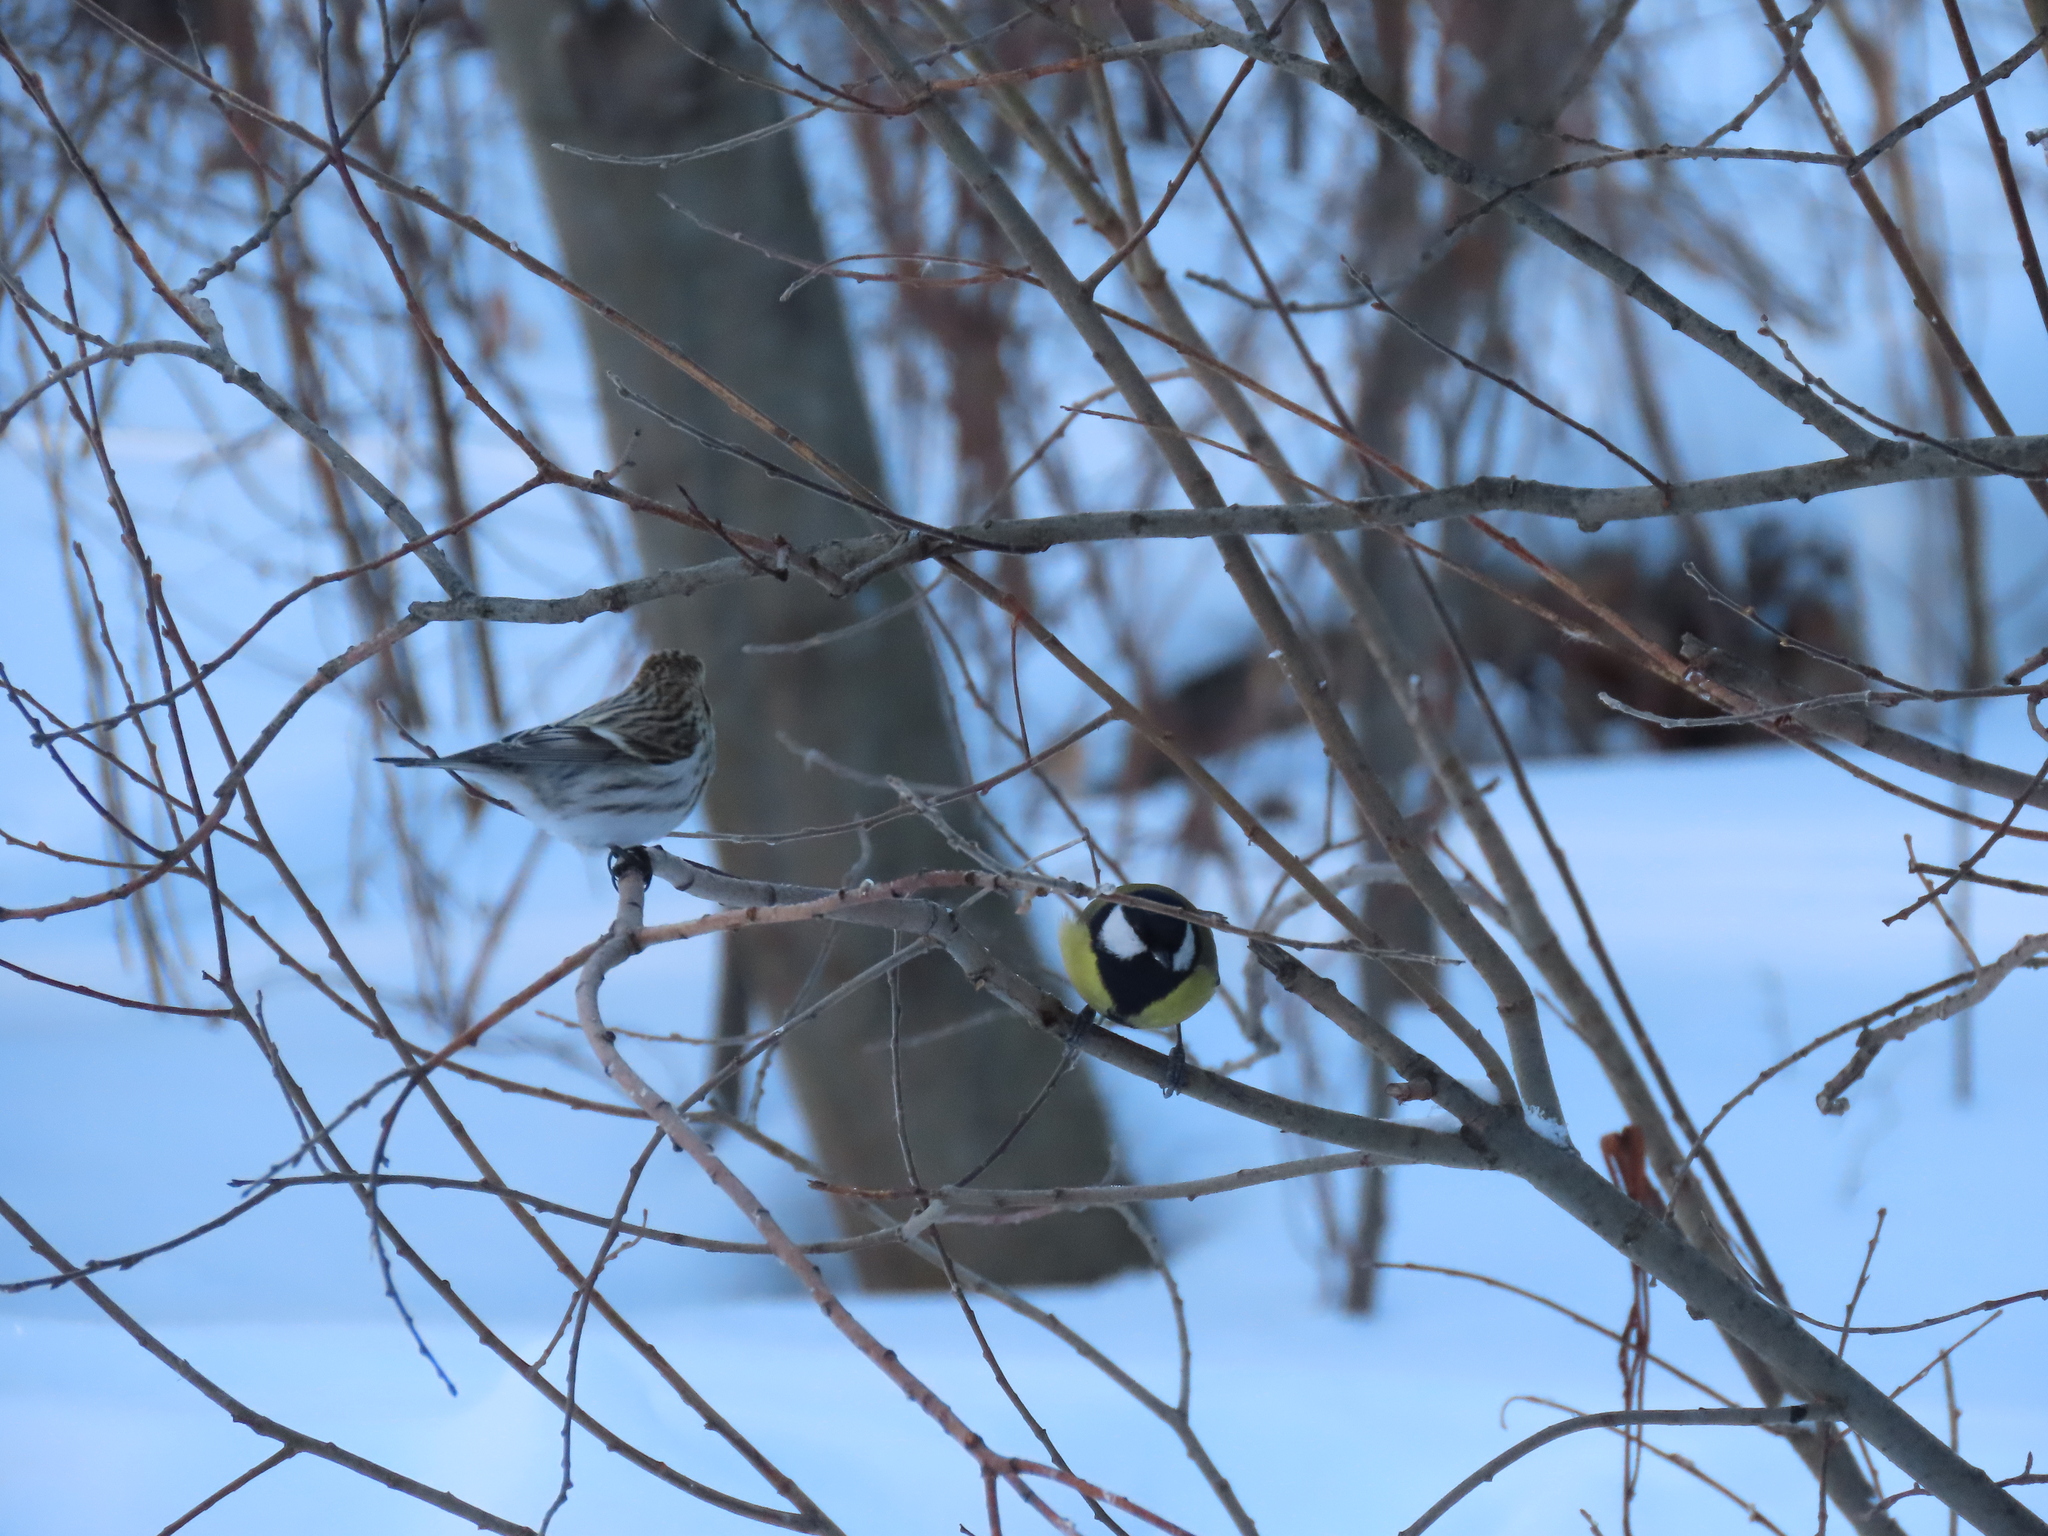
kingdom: Animalia
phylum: Chordata
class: Aves
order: Passeriformes
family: Paridae
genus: Parus
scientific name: Parus major
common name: Great tit
